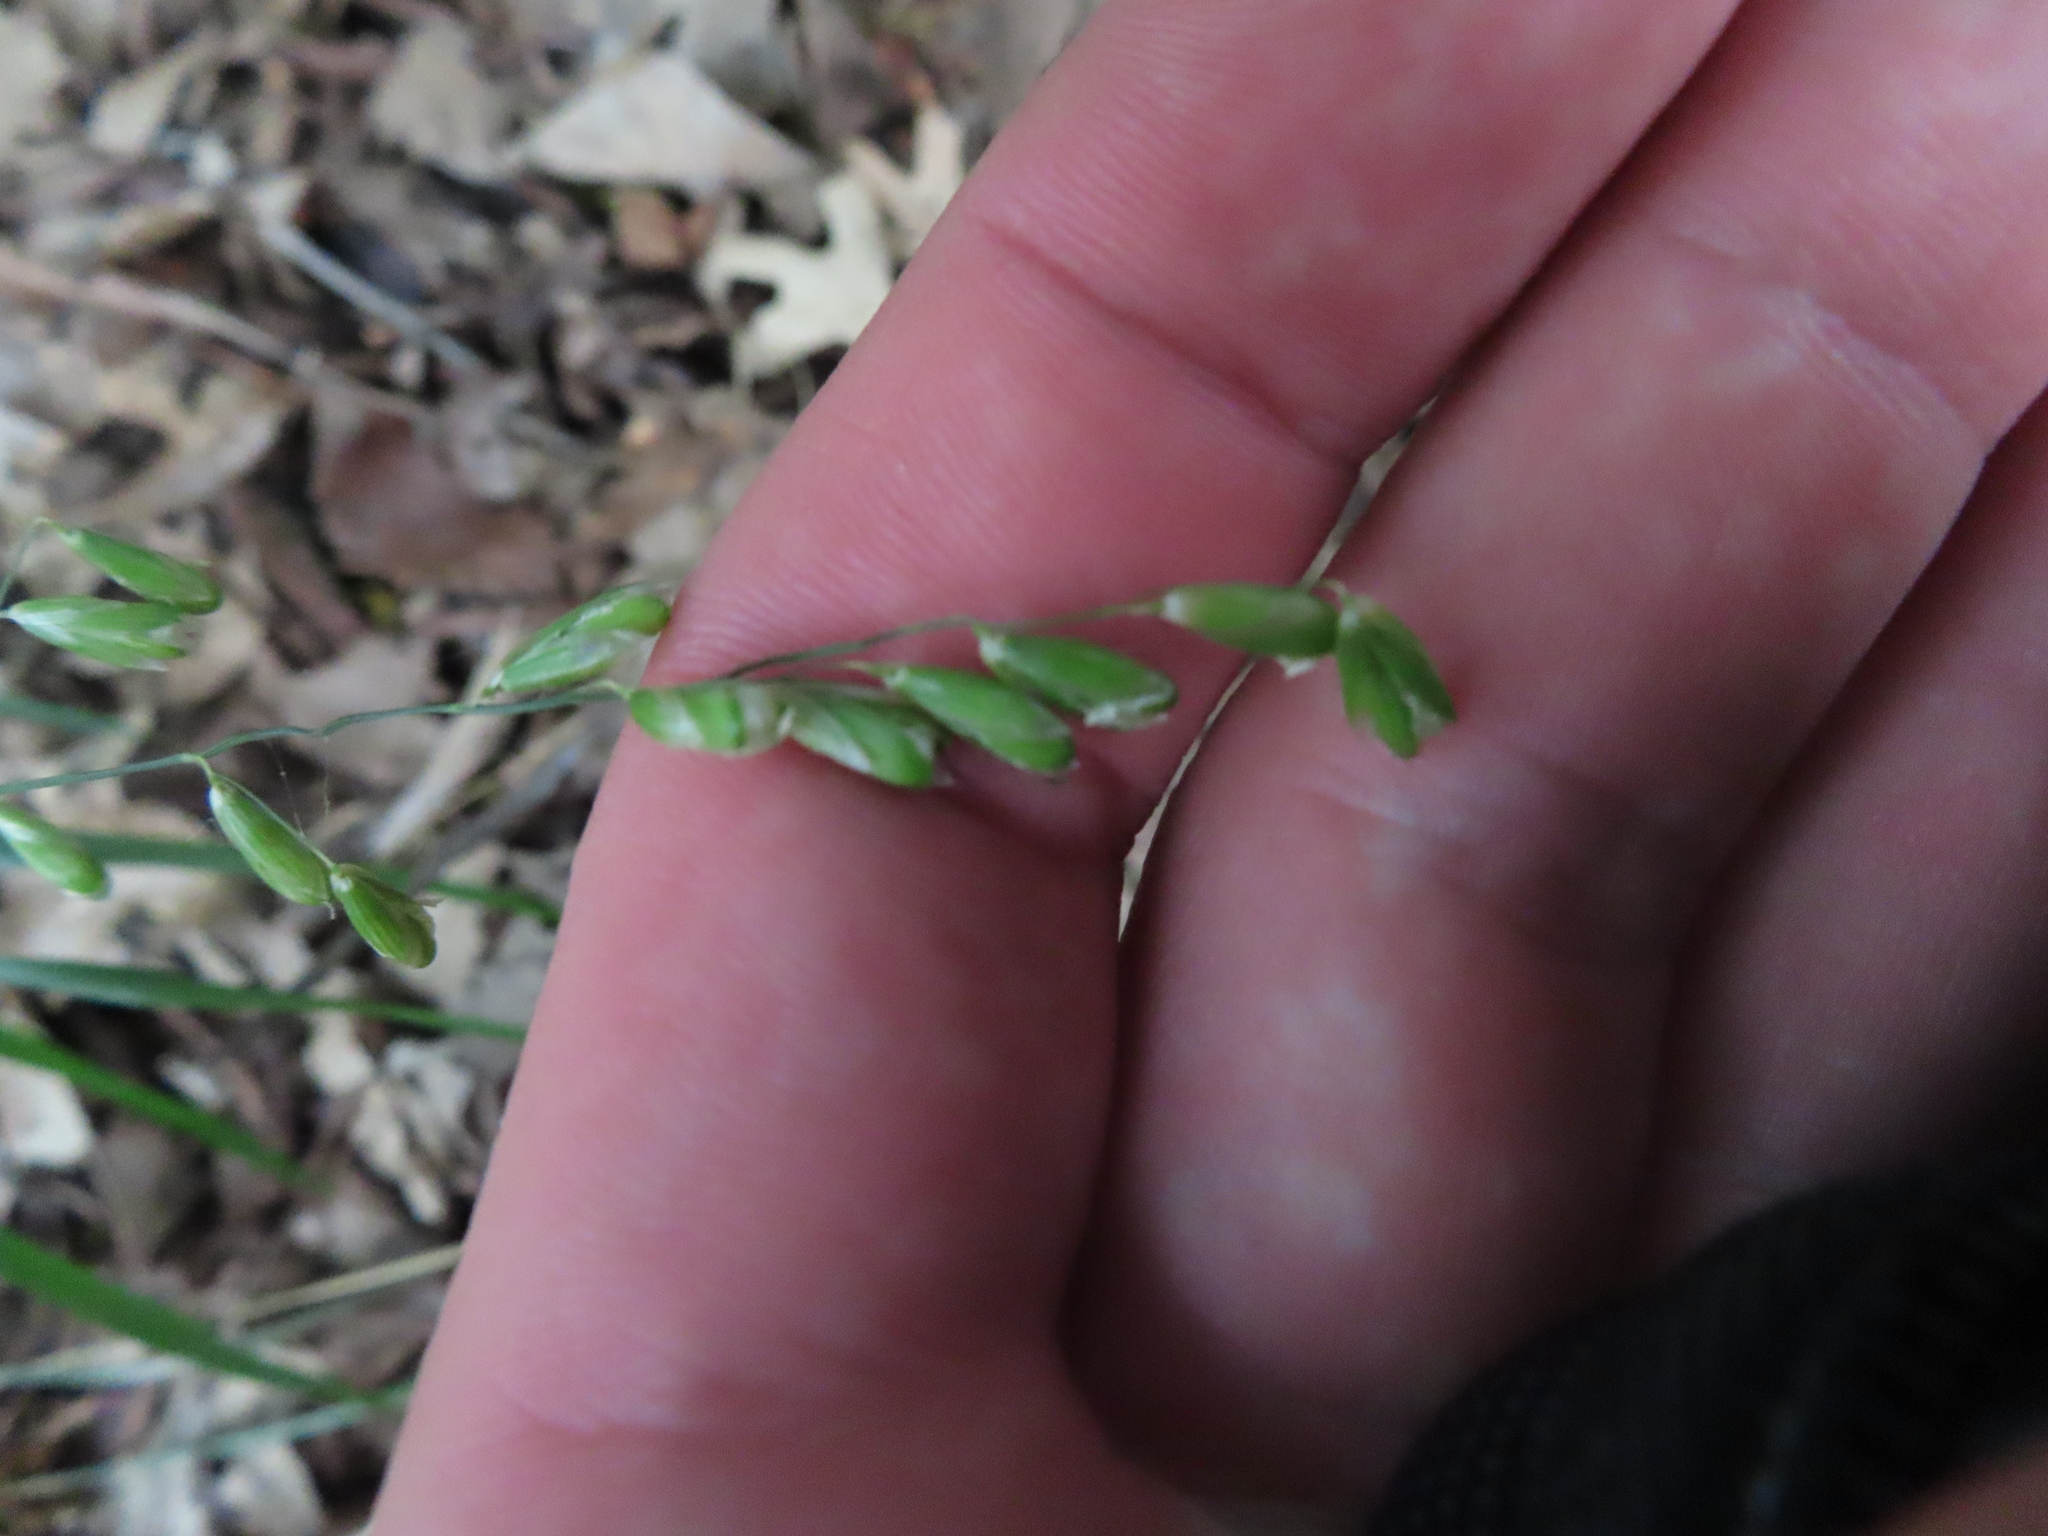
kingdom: Plantae
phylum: Tracheophyta
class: Liliopsida
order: Poales
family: Poaceae
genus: Melica
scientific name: Melica mutica
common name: Two-flower melic
